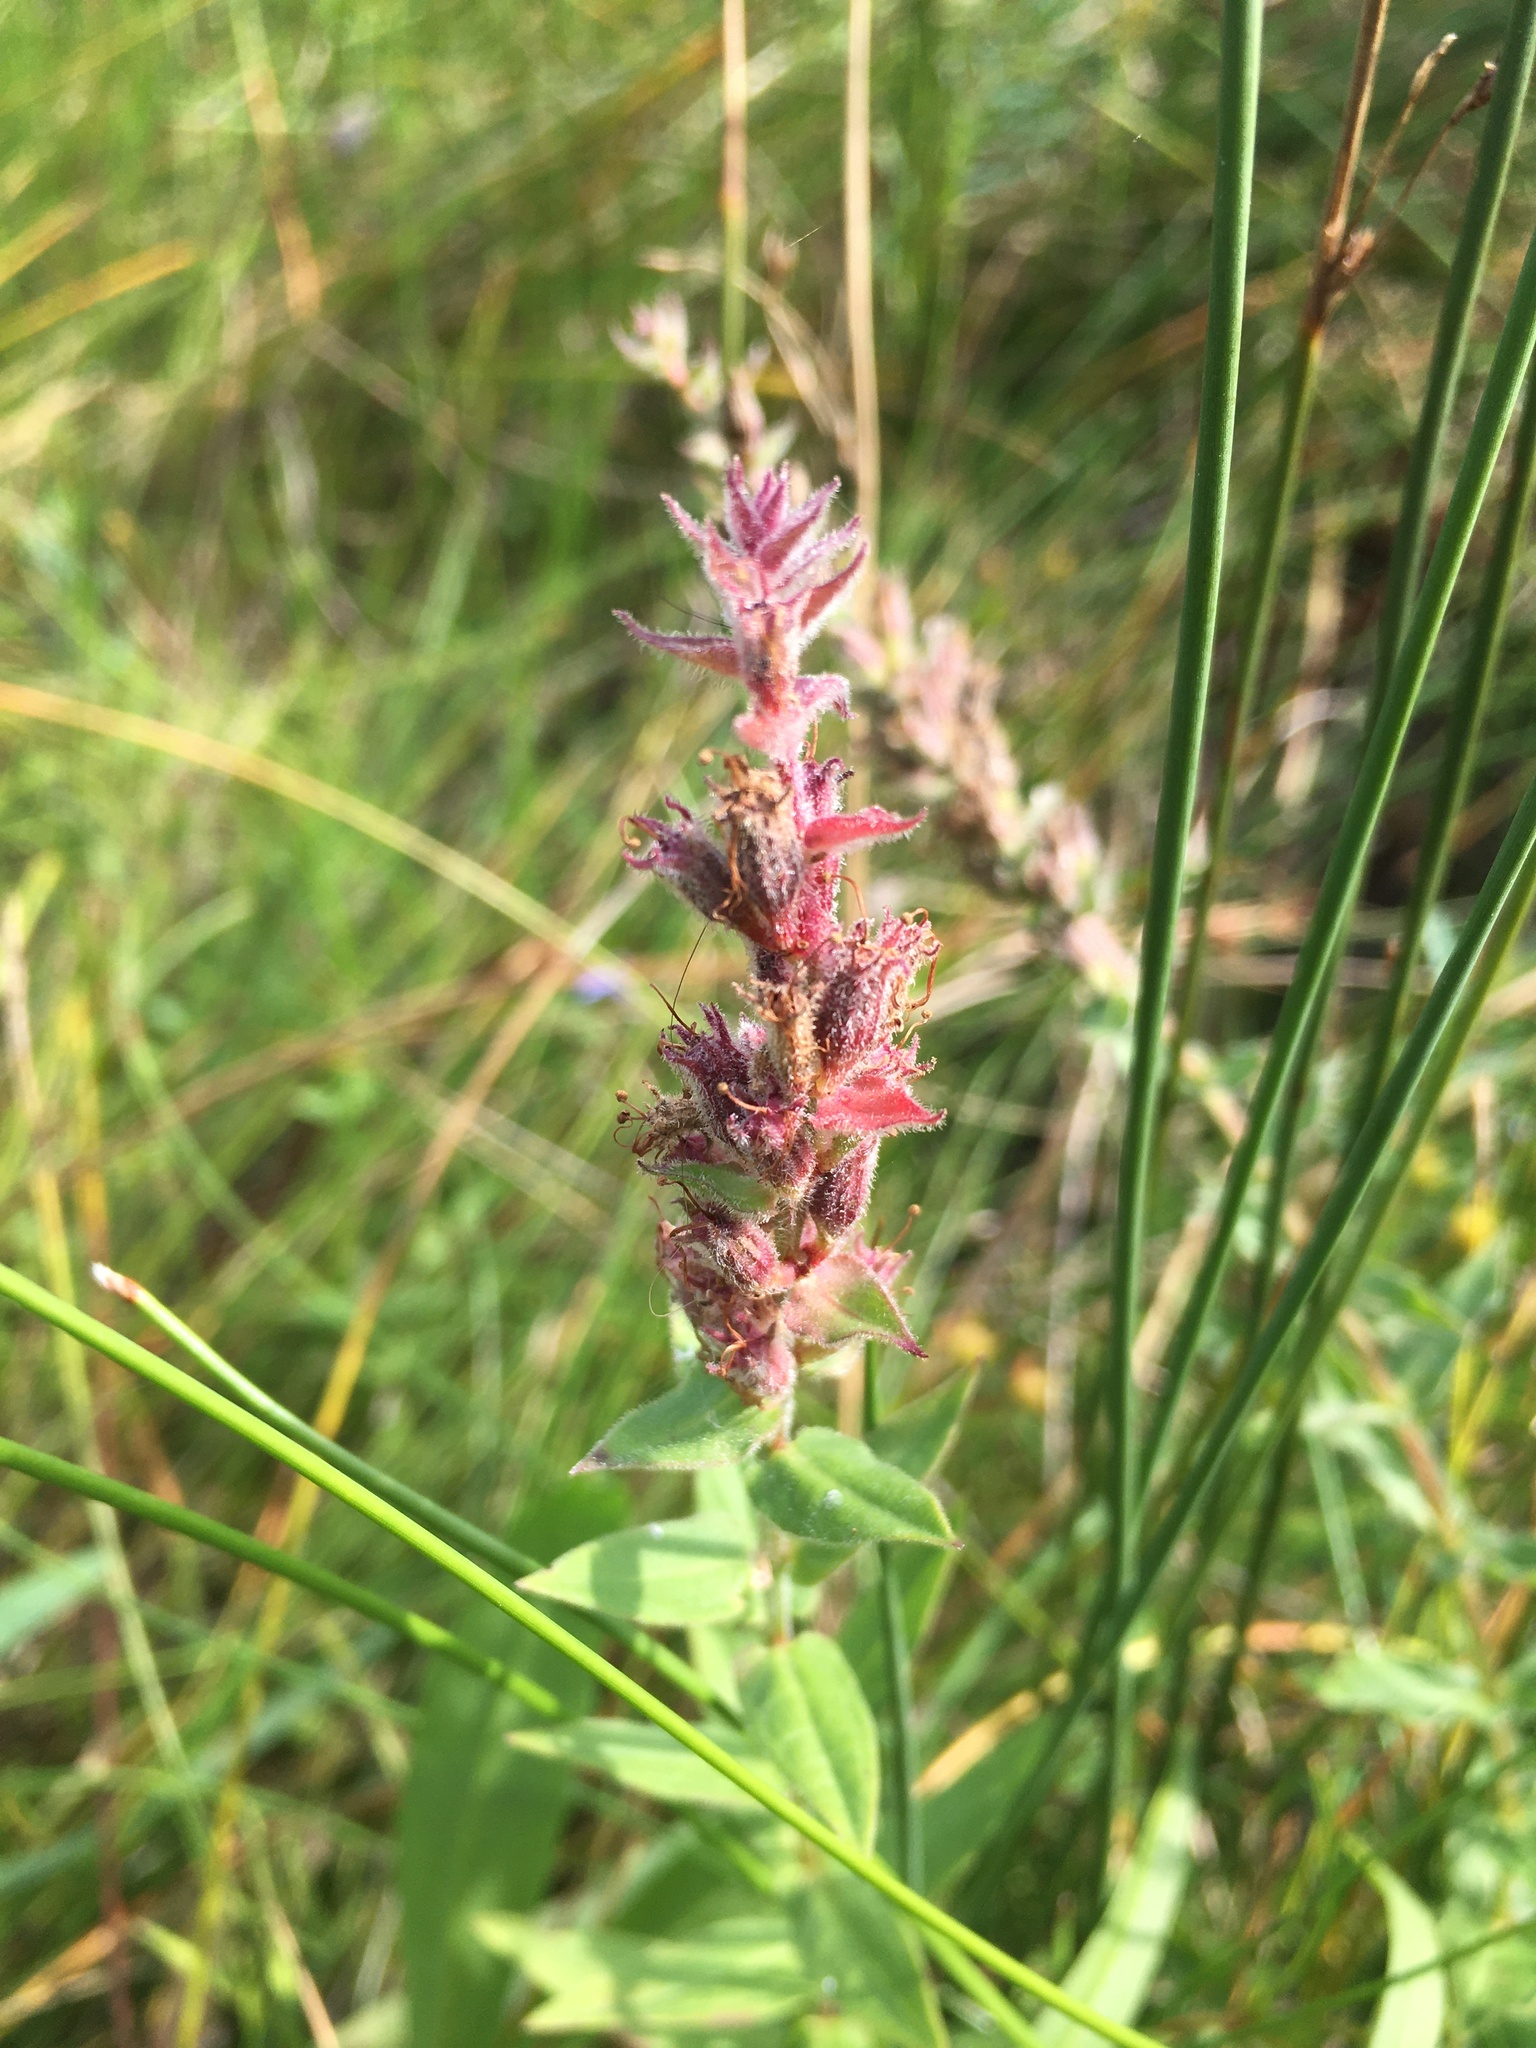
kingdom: Plantae
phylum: Tracheophyta
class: Magnoliopsida
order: Myrtales
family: Lythraceae
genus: Lythrum
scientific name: Lythrum salicaria
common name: Purple loosestrife
